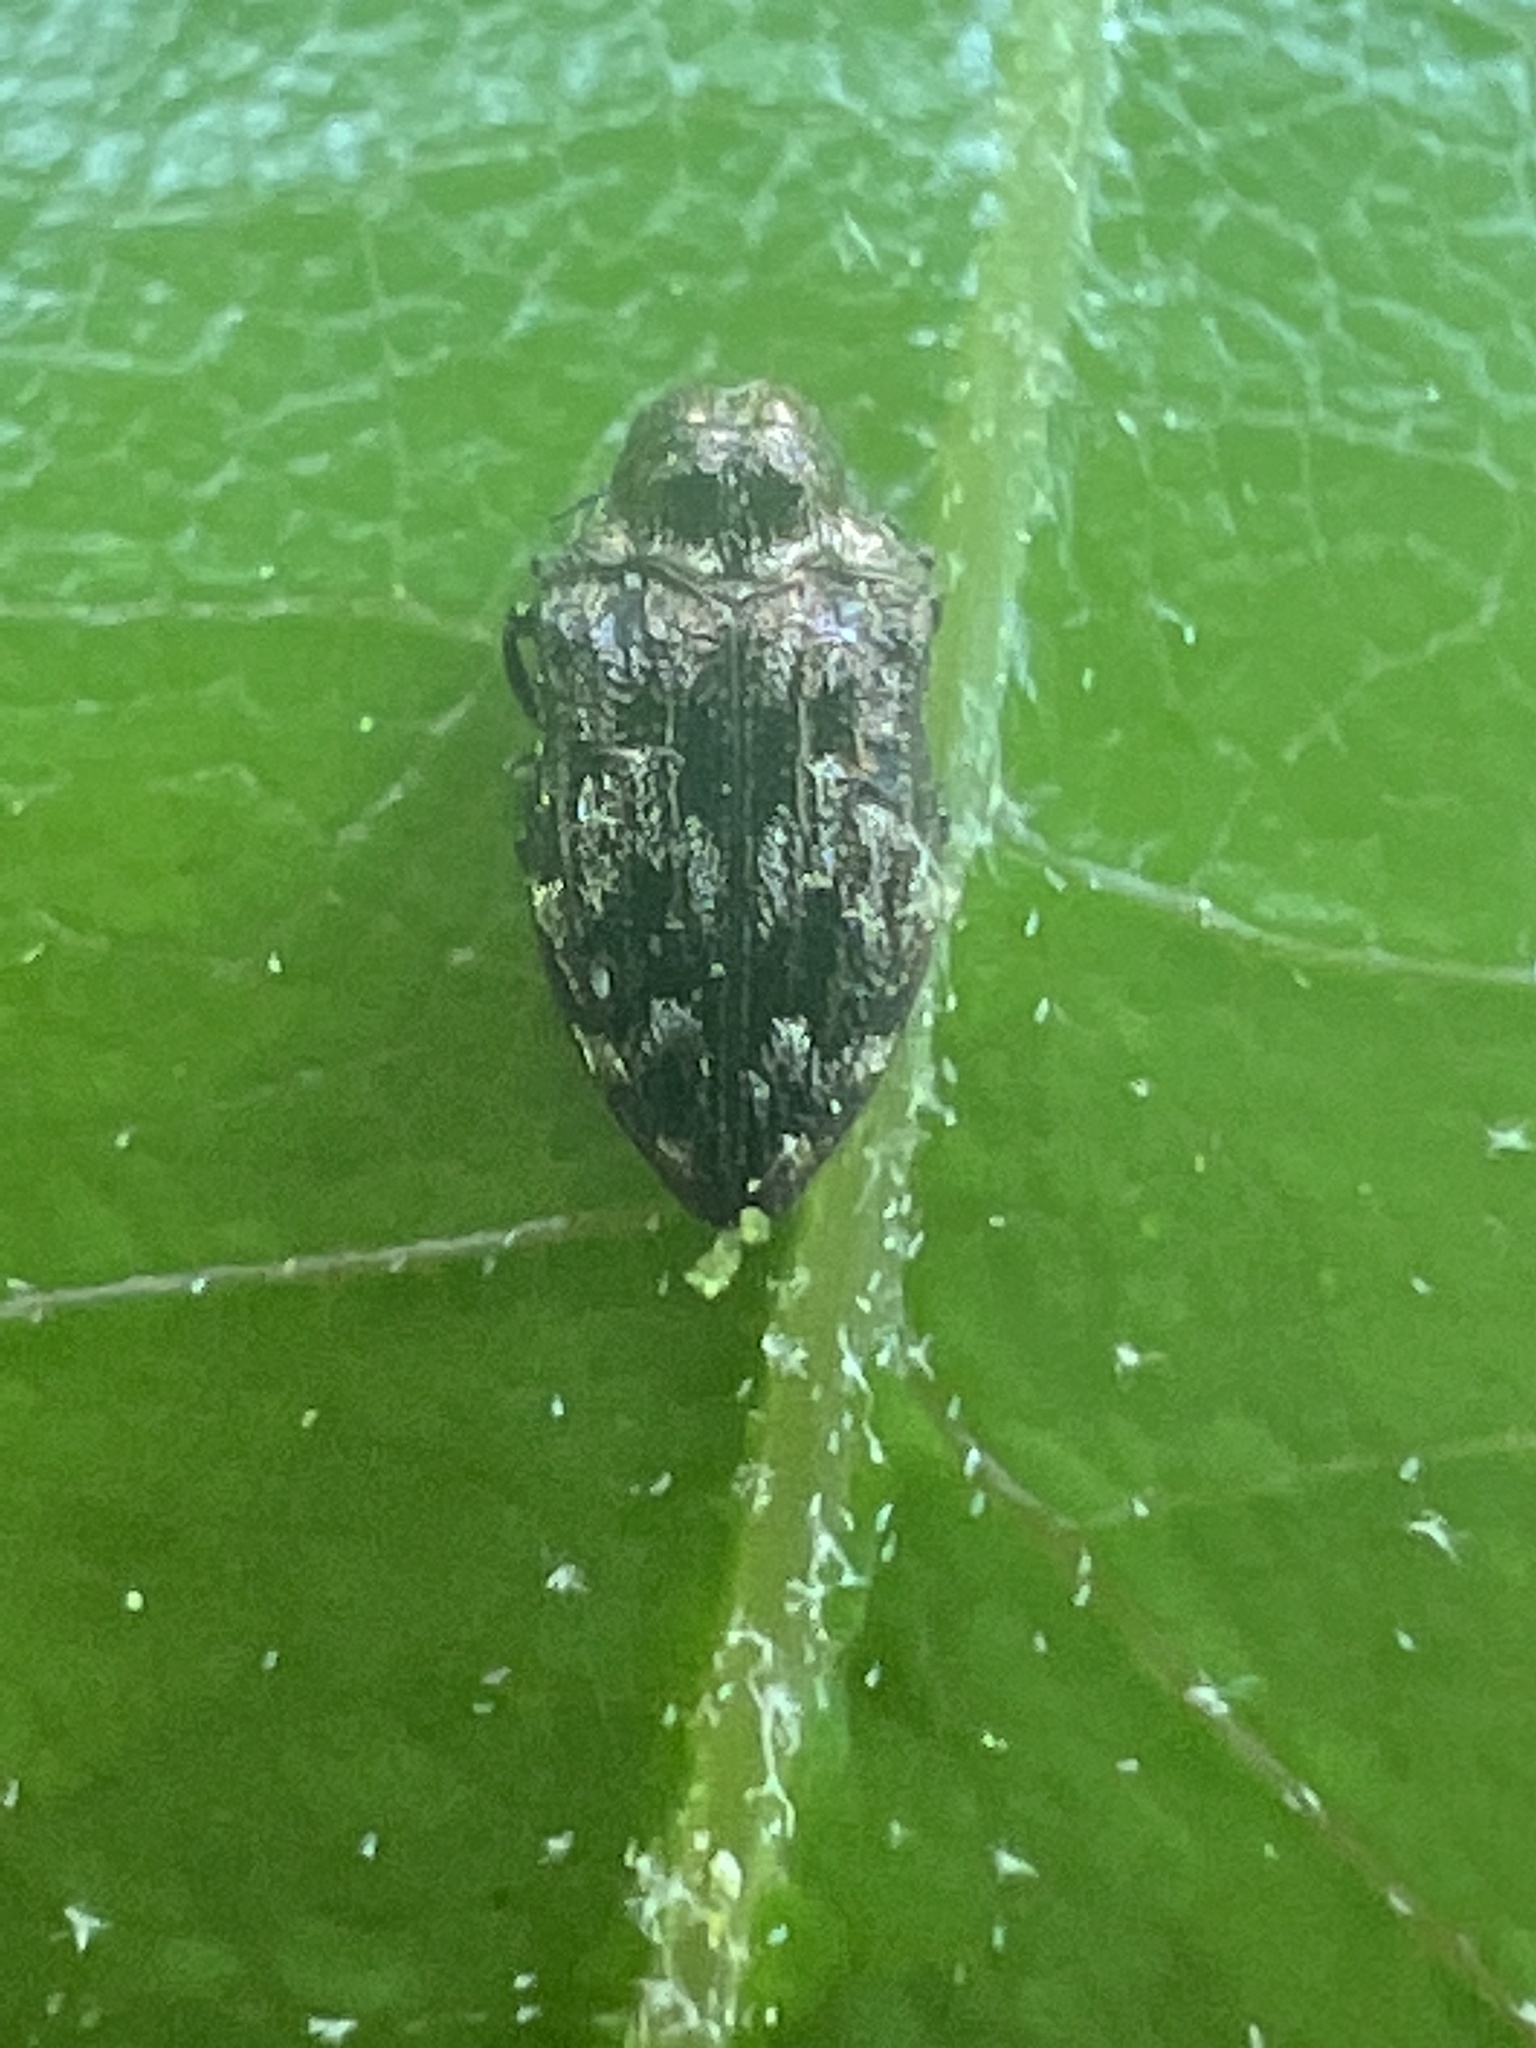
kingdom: Animalia
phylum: Arthropoda
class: Insecta
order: Coleoptera
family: Buprestidae
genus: Brachys
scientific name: Brachys ovatus
